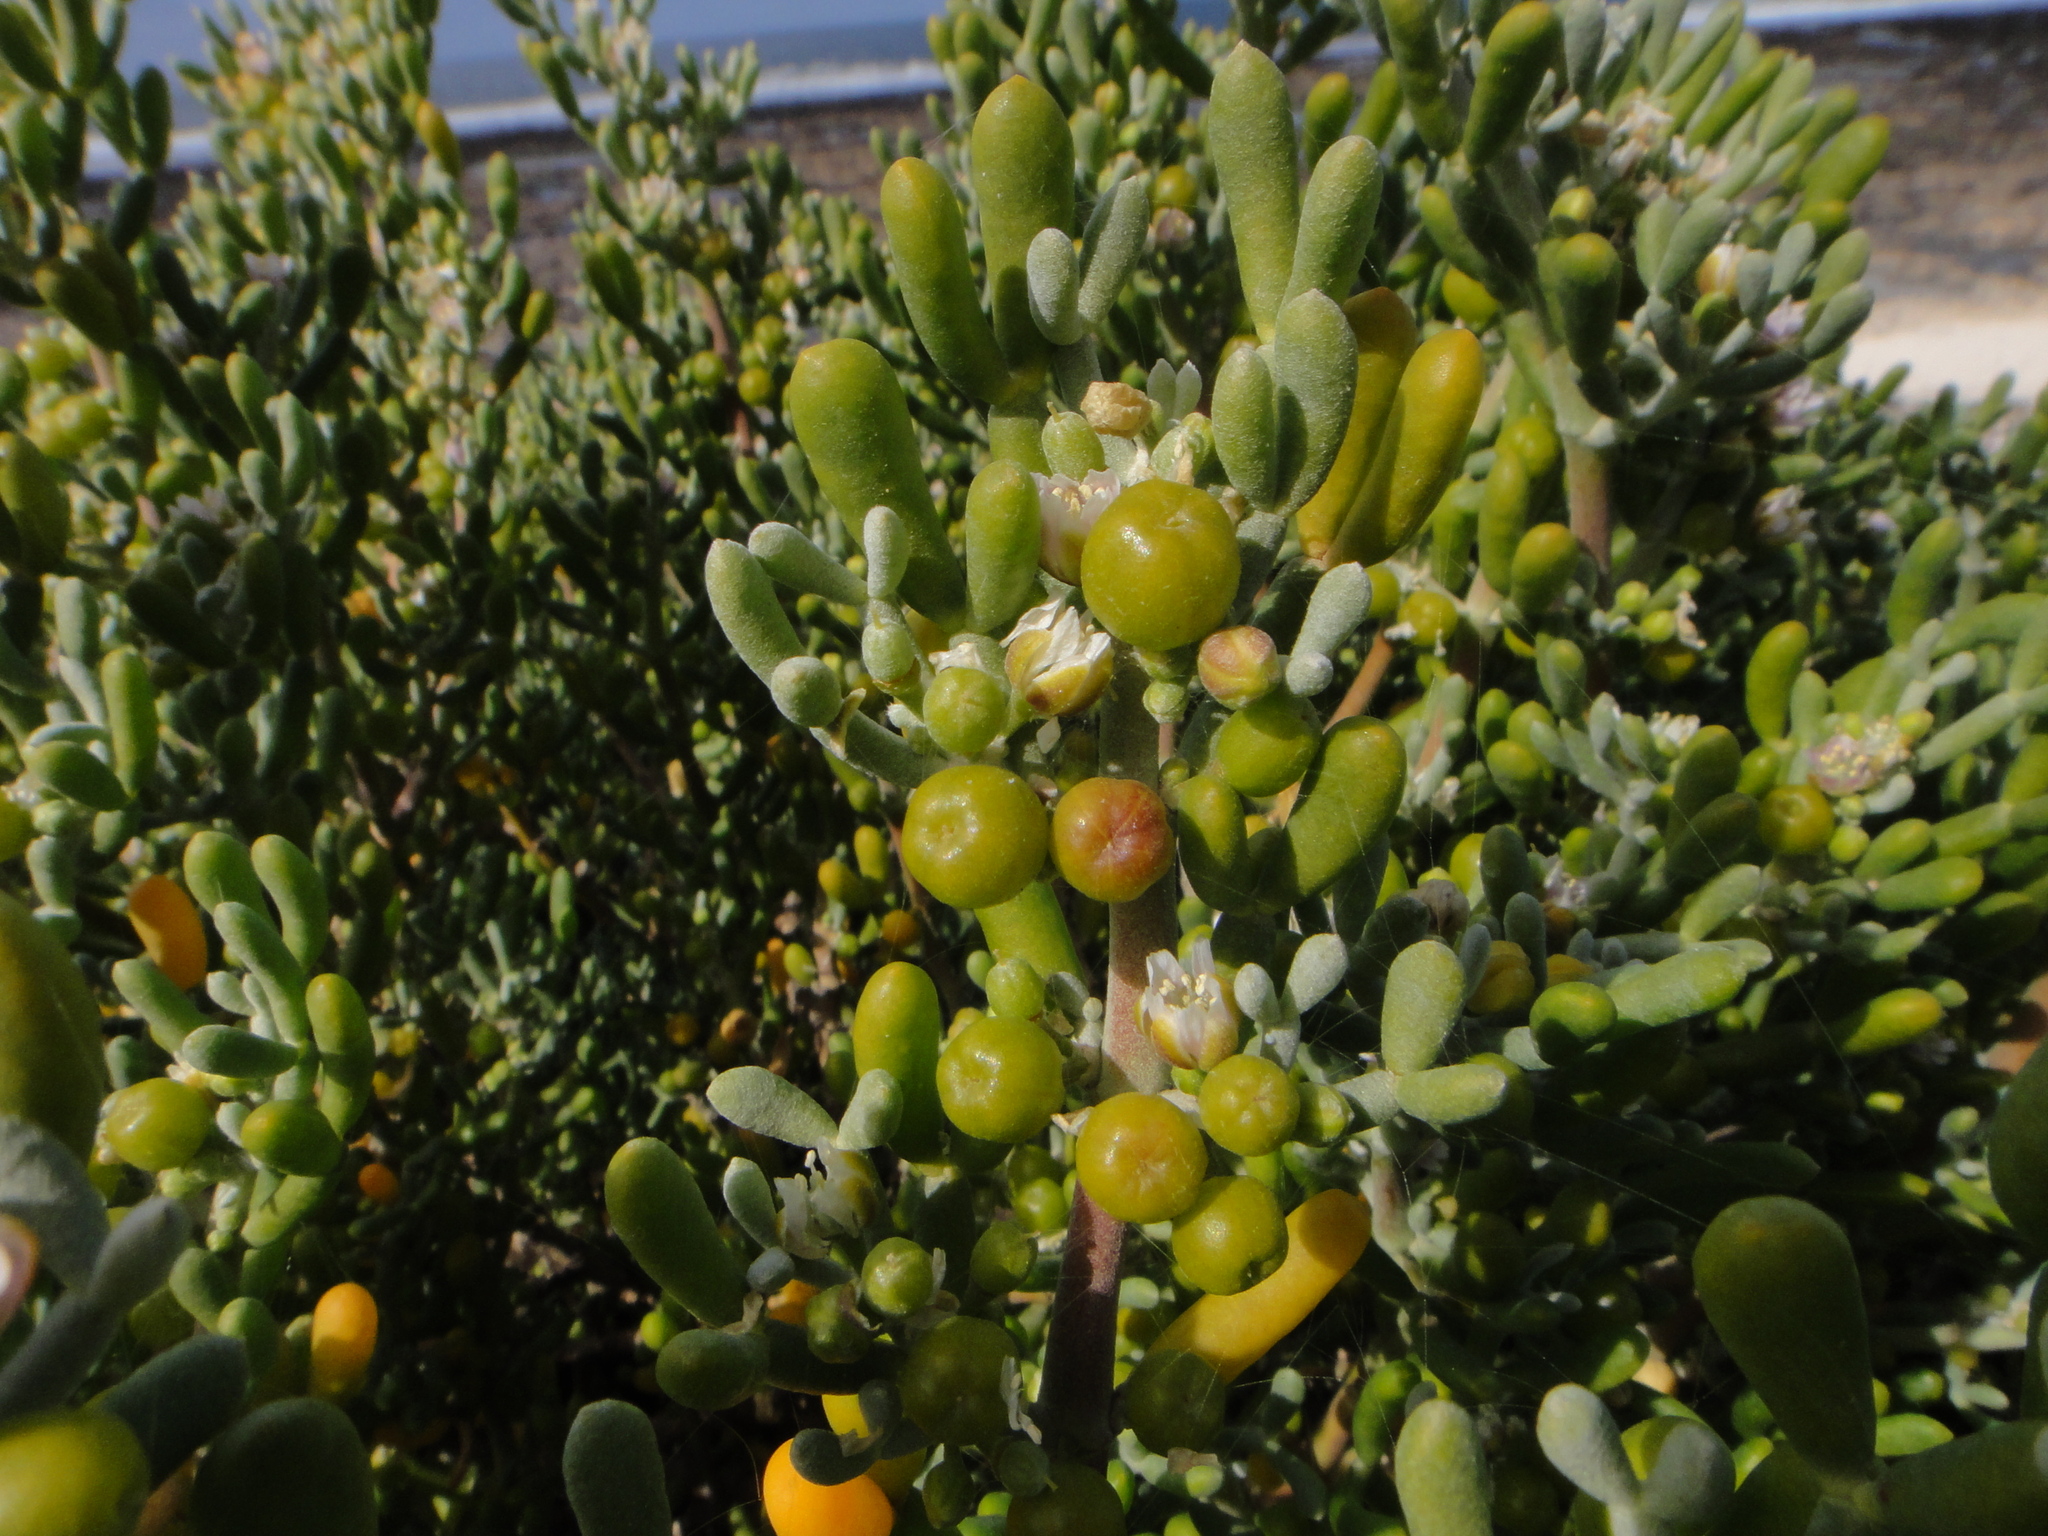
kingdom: Plantae
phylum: Tracheophyta
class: Magnoliopsida
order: Zygophyllales
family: Zygophyllaceae
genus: Tetraena
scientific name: Tetraena fontanesii
